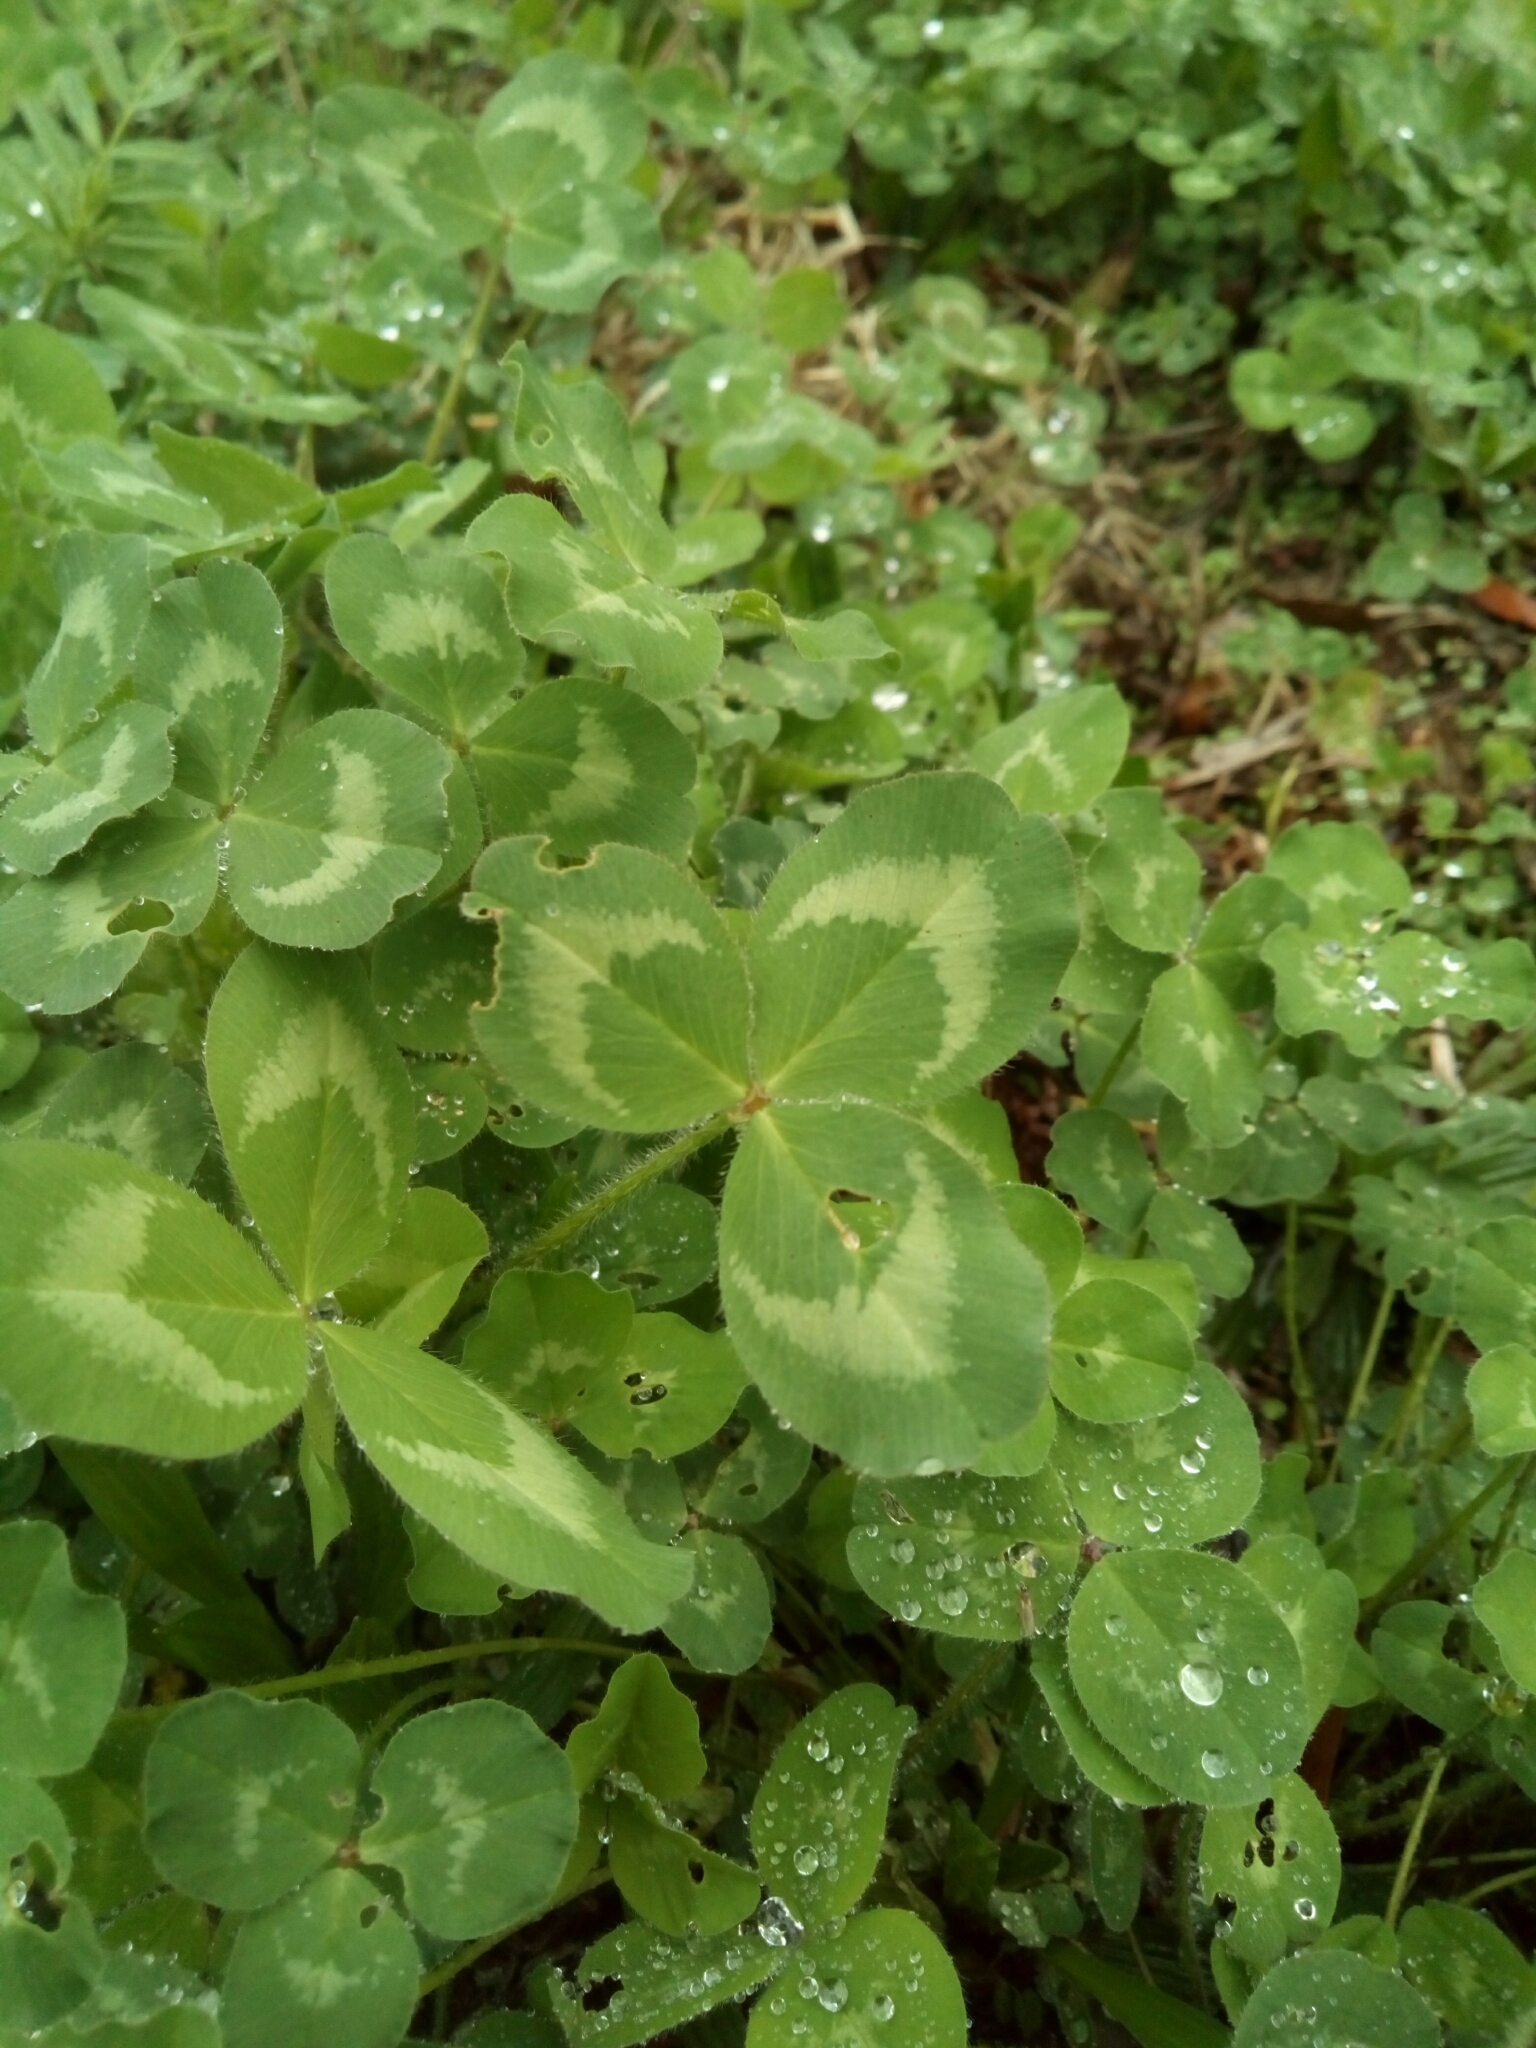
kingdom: Plantae
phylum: Tracheophyta
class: Magnoliopsida
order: Fabales
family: Fabaceae
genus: Trifolium
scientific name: Trifolium pratense
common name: Red clover
